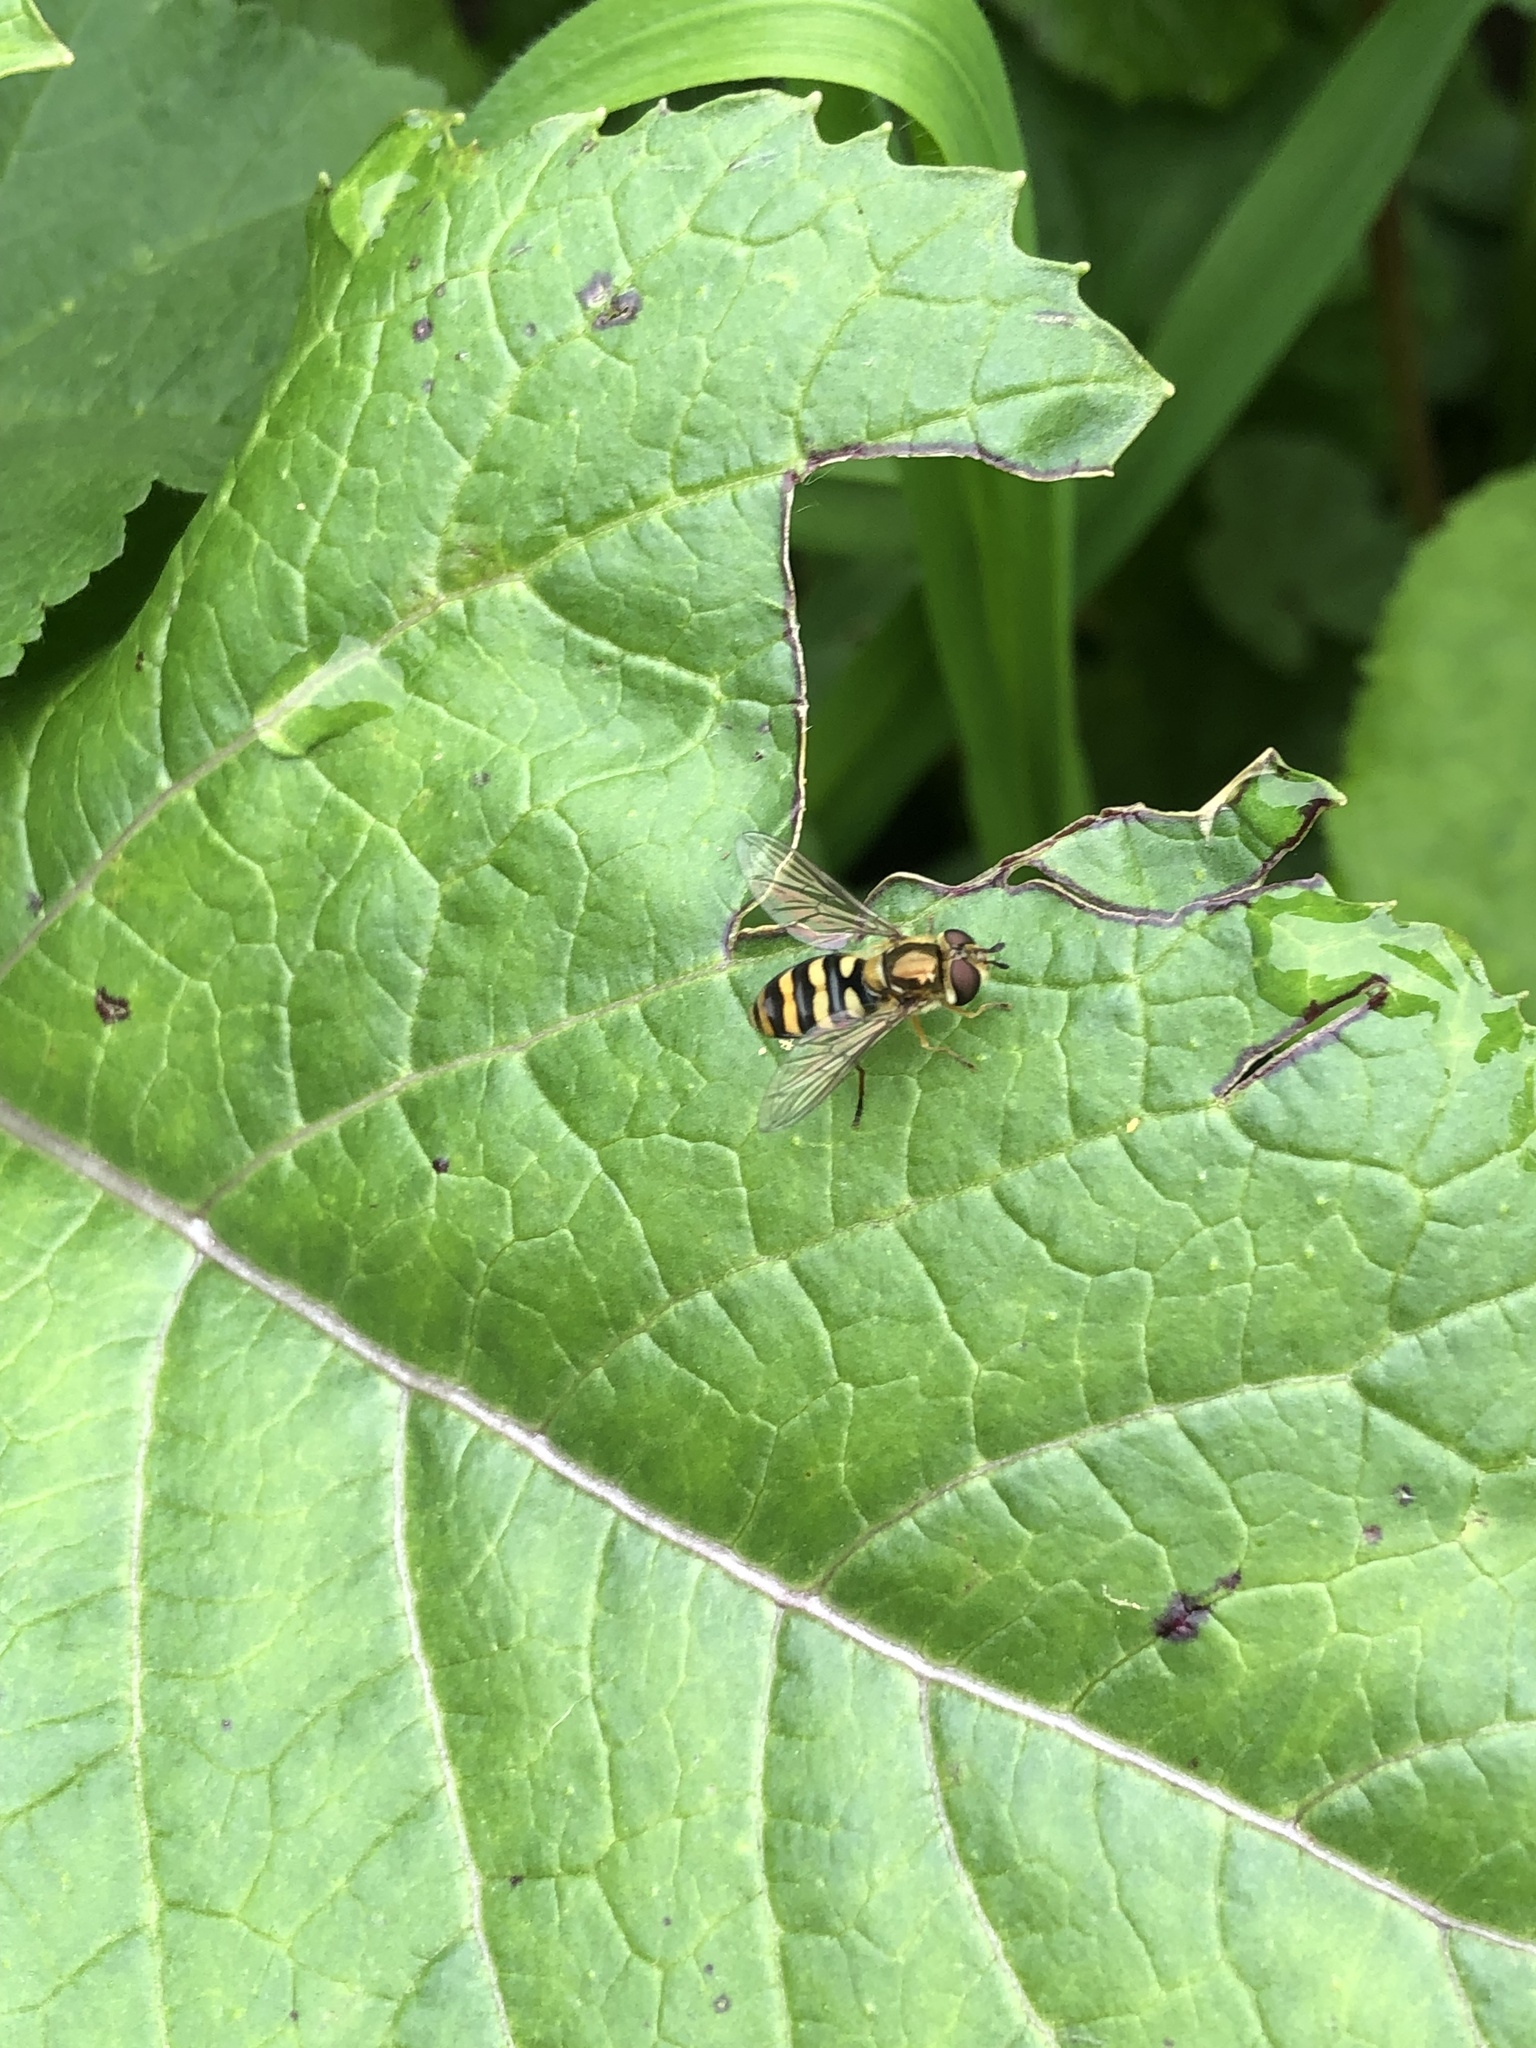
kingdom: Animalia
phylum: Arthropoda
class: Insecta
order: Diptera
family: Syrphidae
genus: Eupeodes
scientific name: Eupeodes fumipennis
